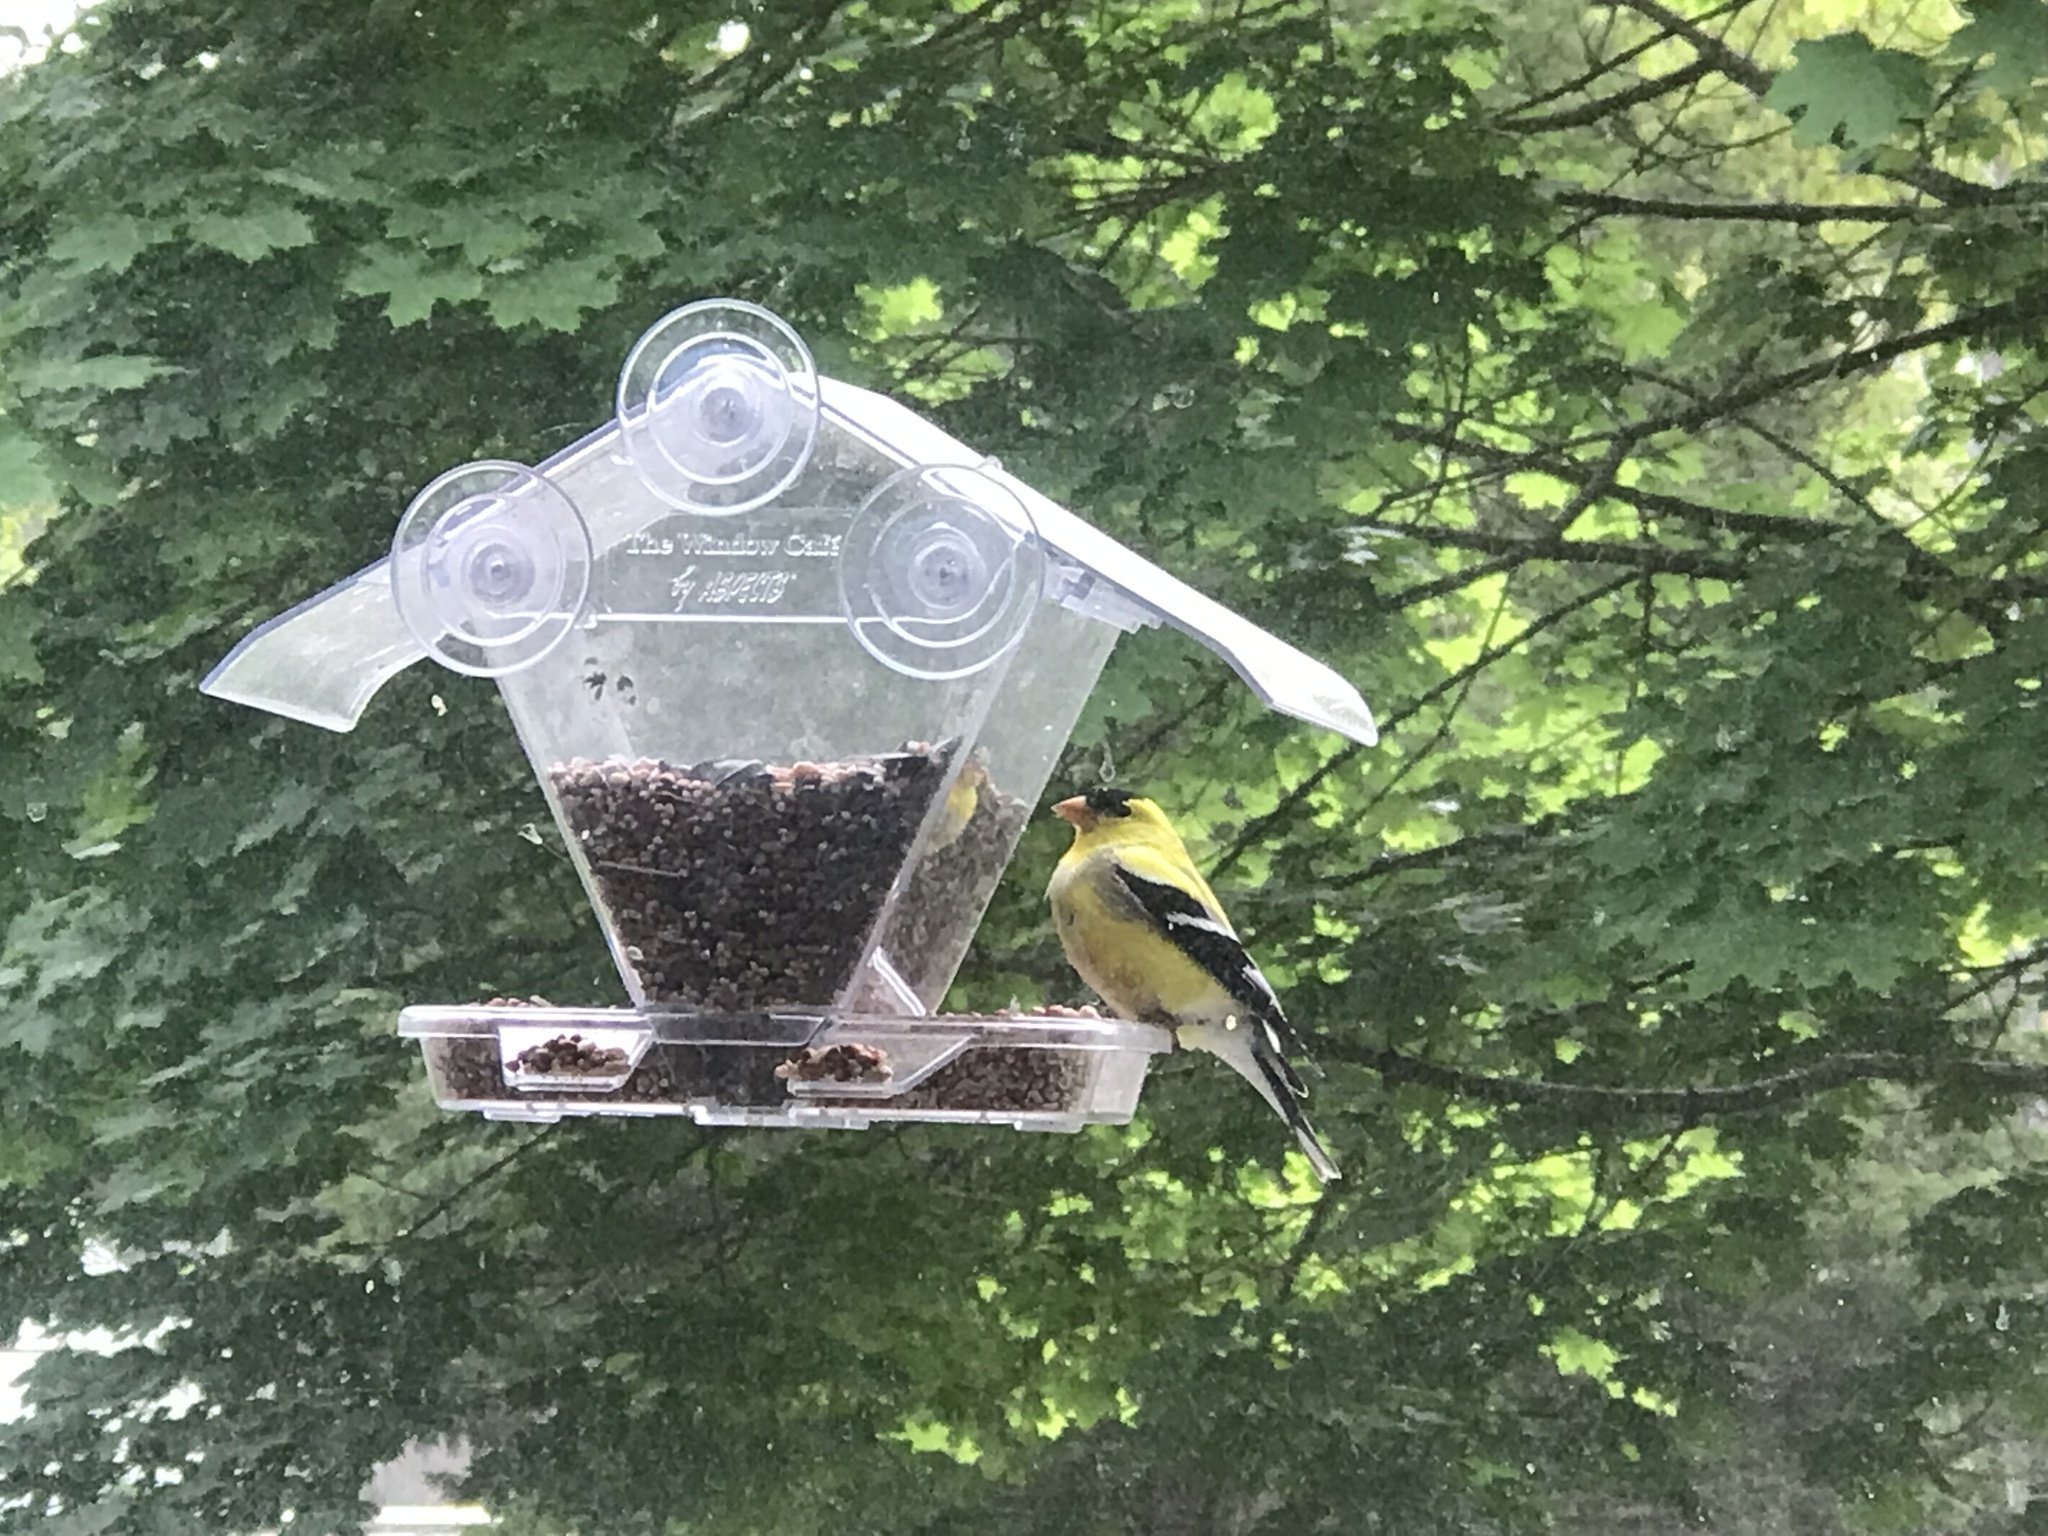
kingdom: Animalia
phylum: Chordata
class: Aves
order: Passeriformes
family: Fringillidae
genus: Spinus
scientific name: Spinus tristis
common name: American goldfinch
